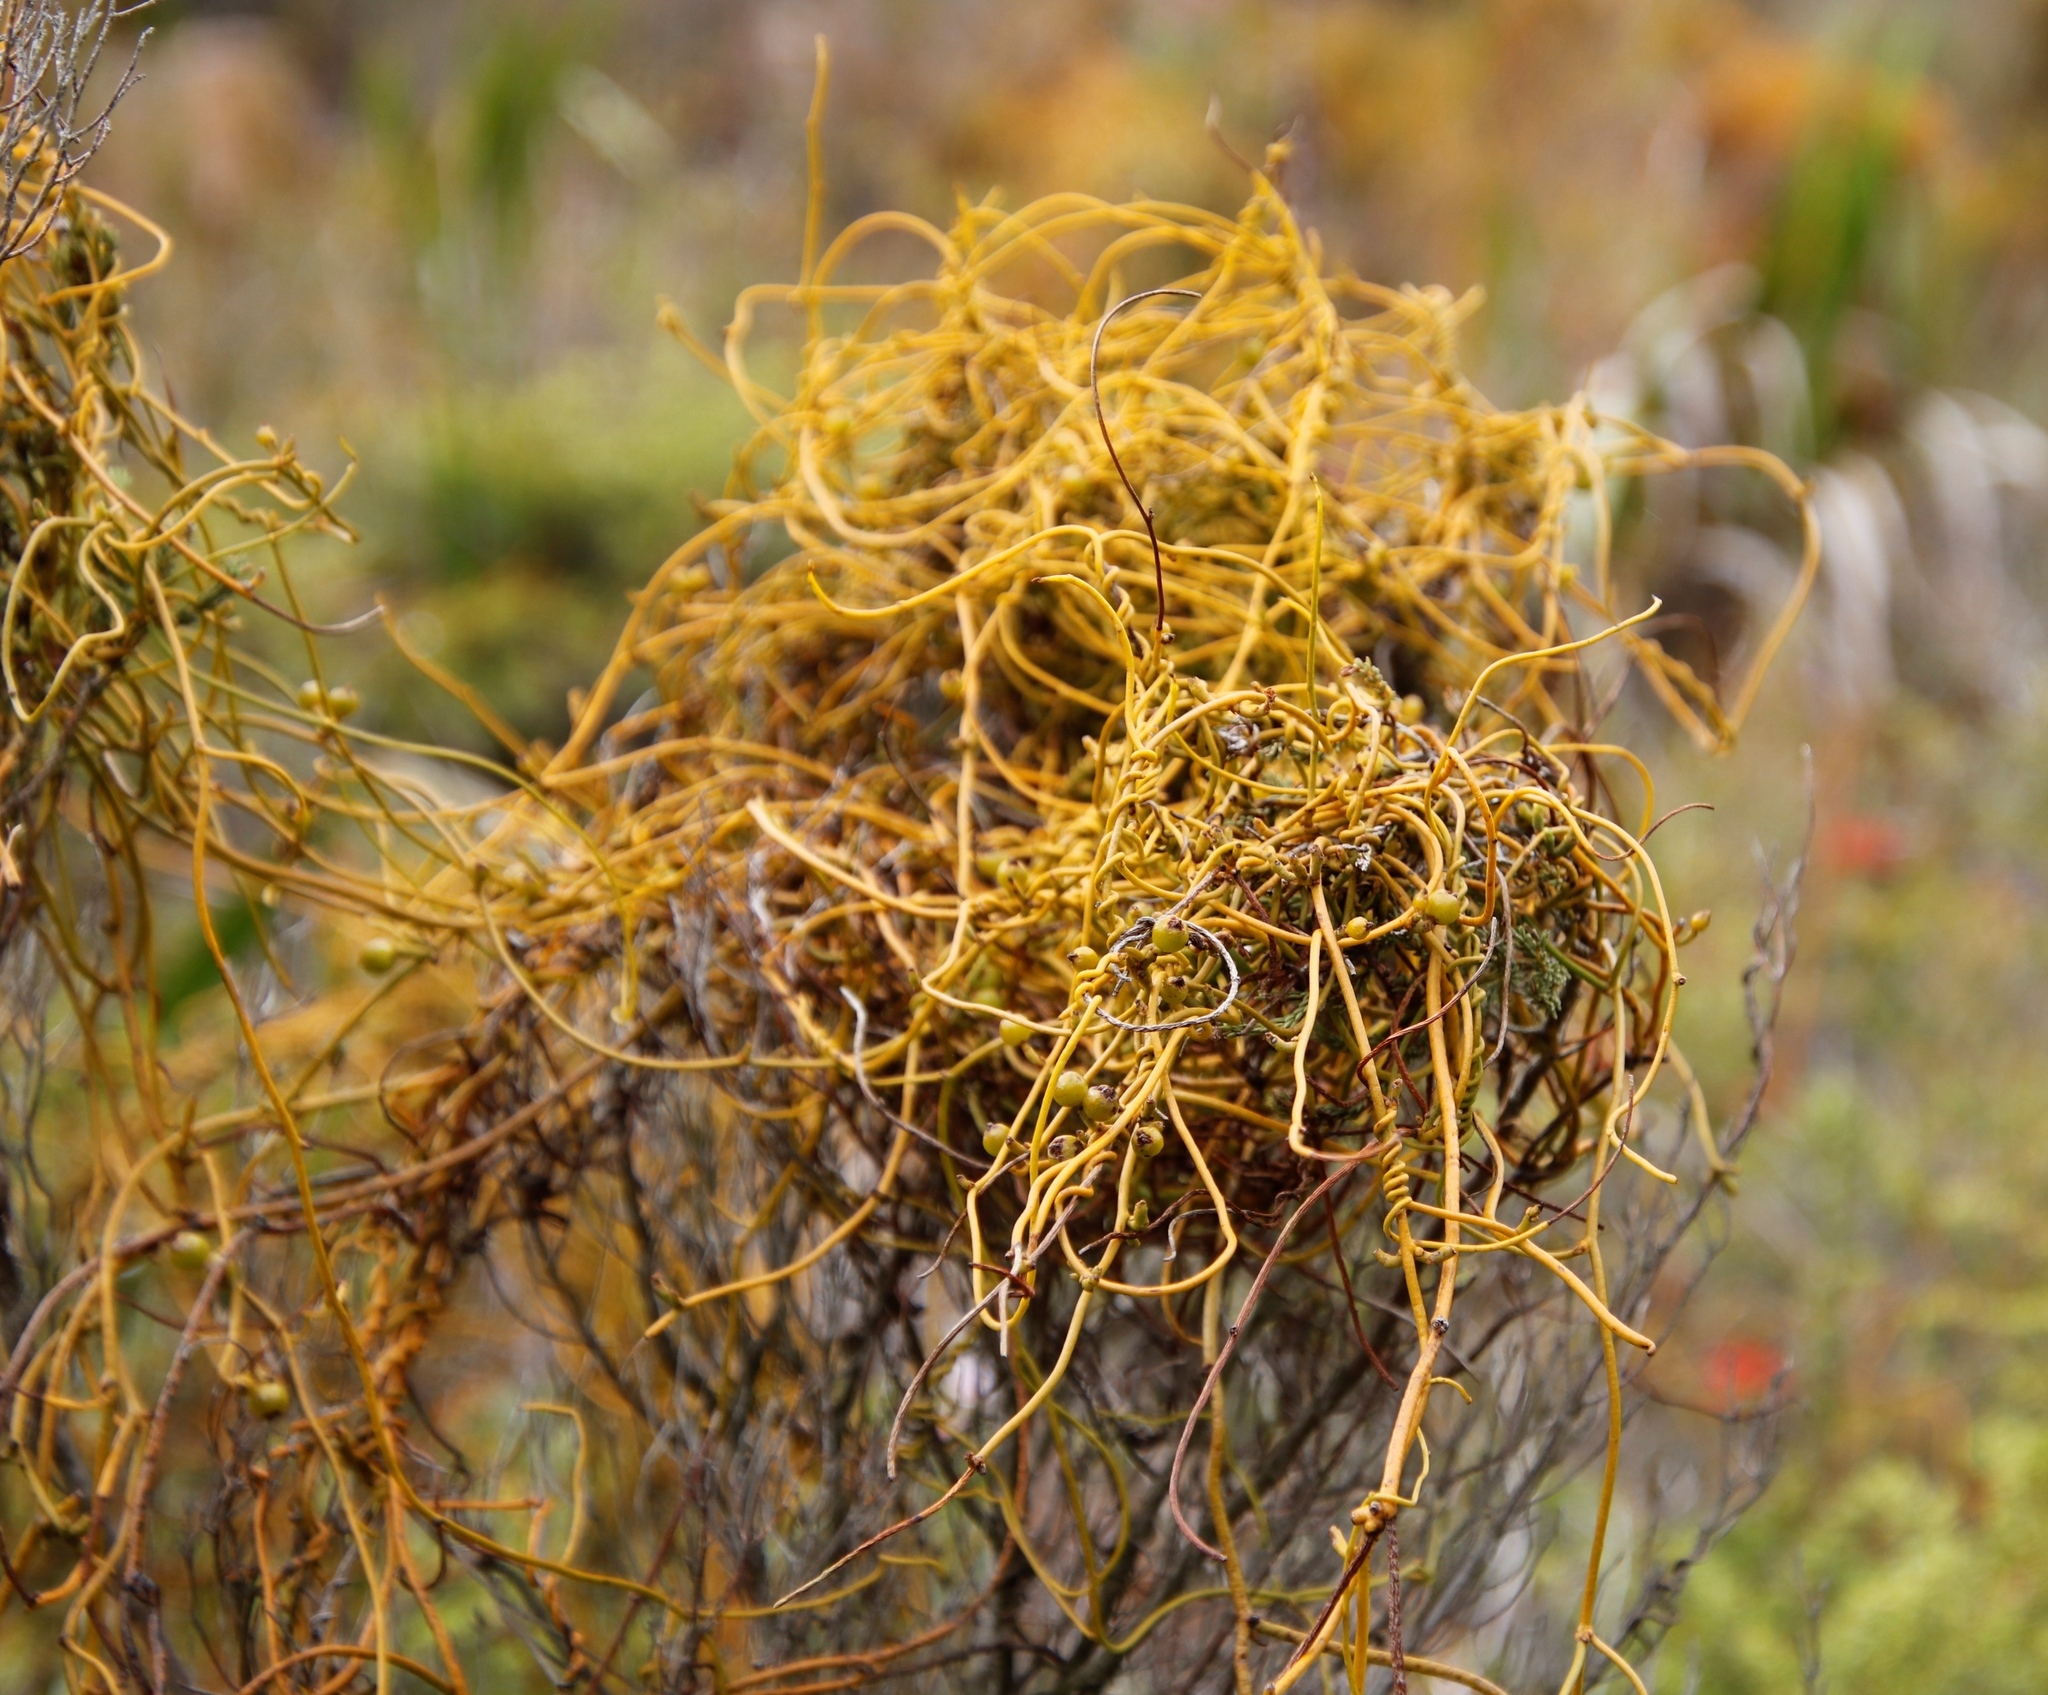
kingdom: Plantae
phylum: Tracheophyta
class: Magnoliopsida
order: Laurales
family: Lauraceae
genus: Cassytha
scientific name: Cassytha ciliolata
